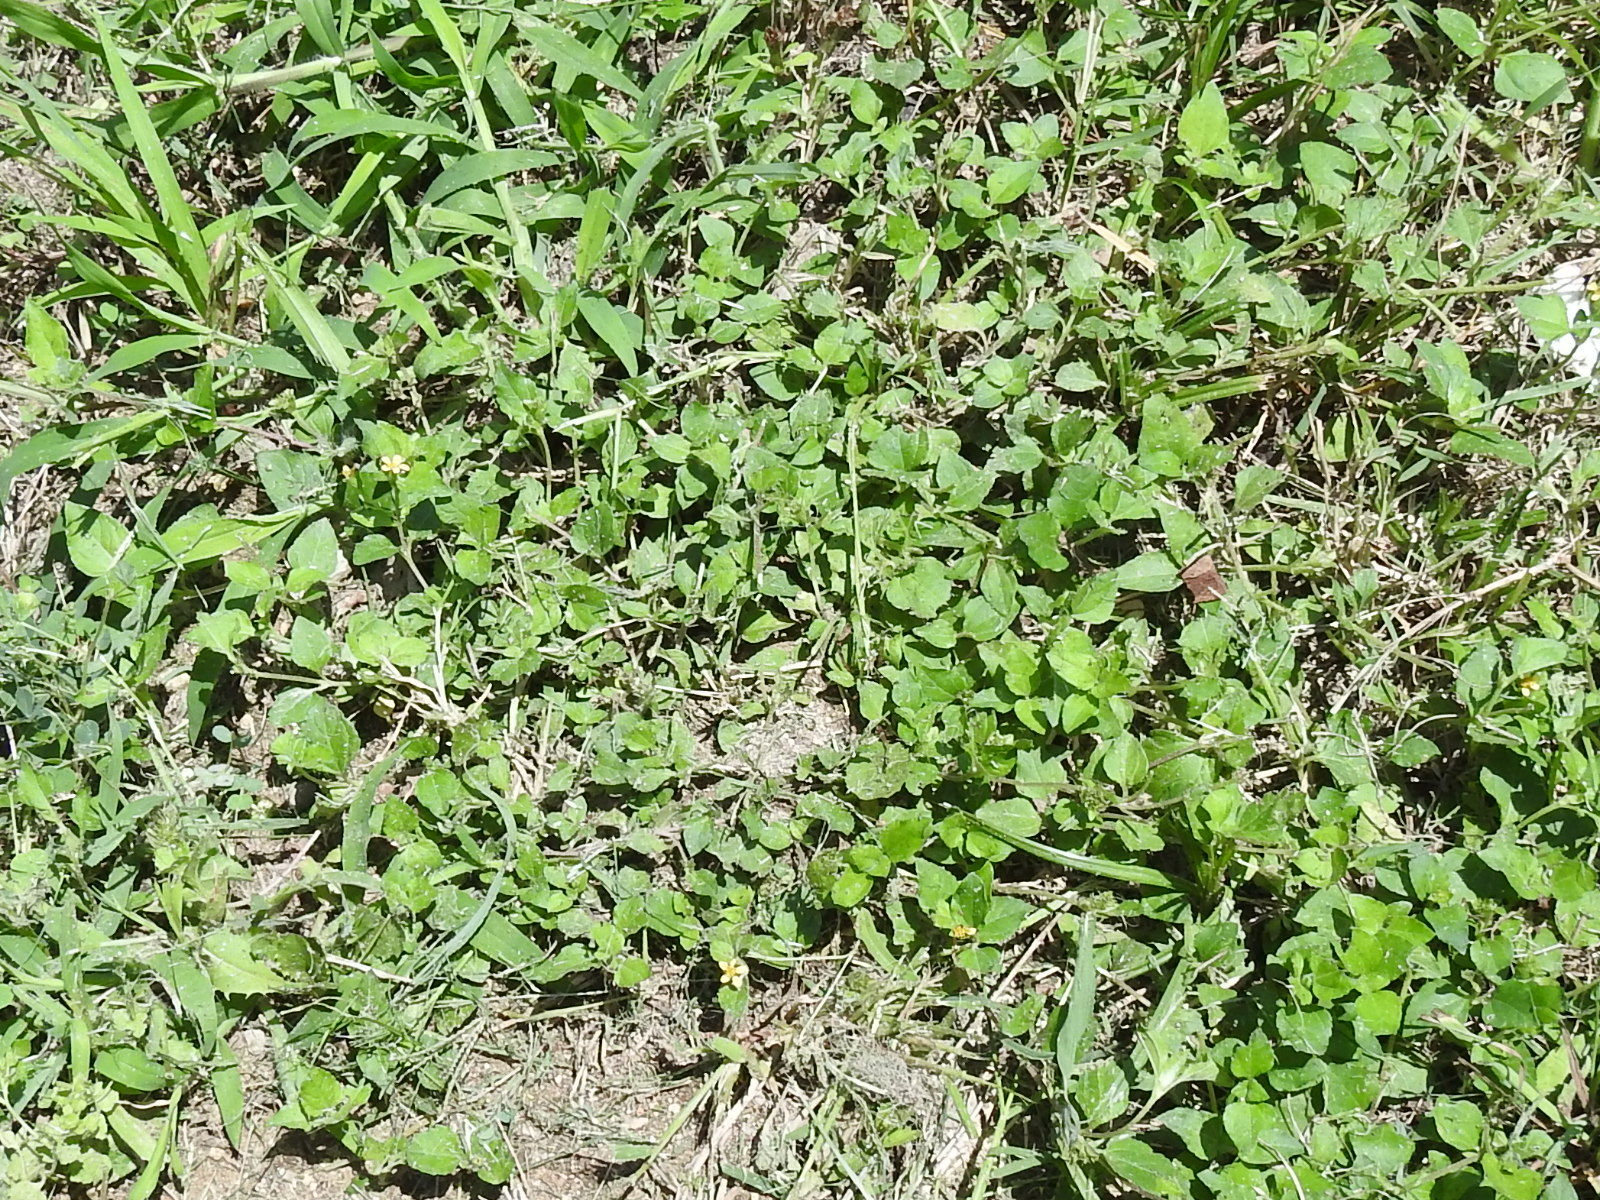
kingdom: Plantae
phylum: Tracheophyta
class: Magnoliopsida
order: Asterales
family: Asteraceae
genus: Calyptocarpus
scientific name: Calyptocarpus vialis
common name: Straggler daisy
